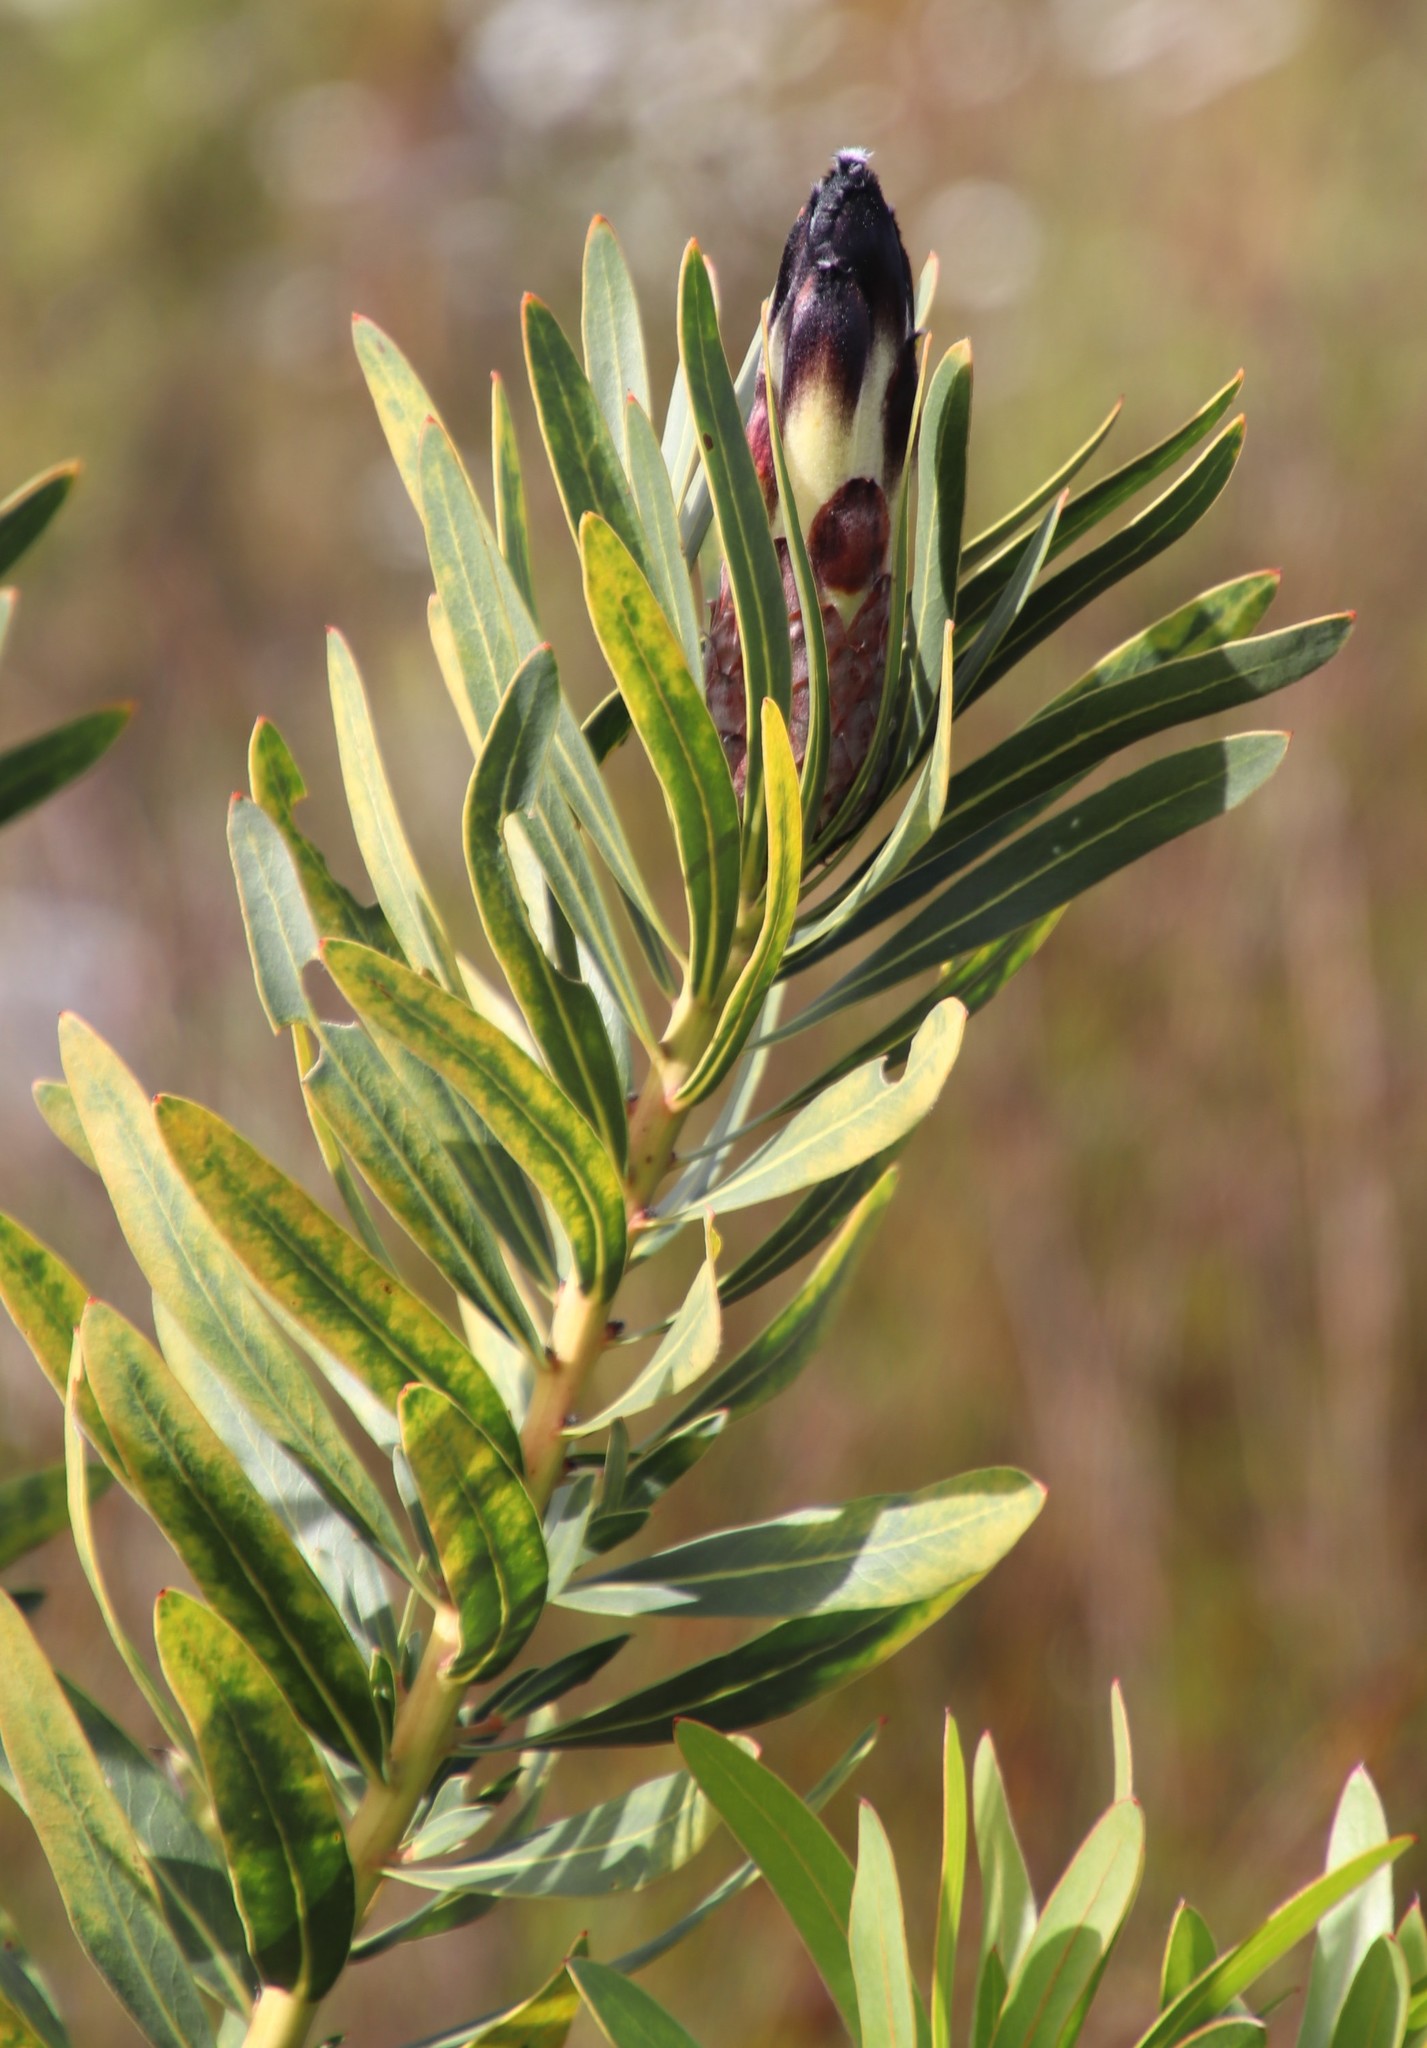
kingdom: Plantae
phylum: Tracheophyta
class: Magnoliopsida
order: Proteales
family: Proteaceae
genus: Protea
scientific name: Protea lepidocarpodendron
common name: Black-bearded protea
